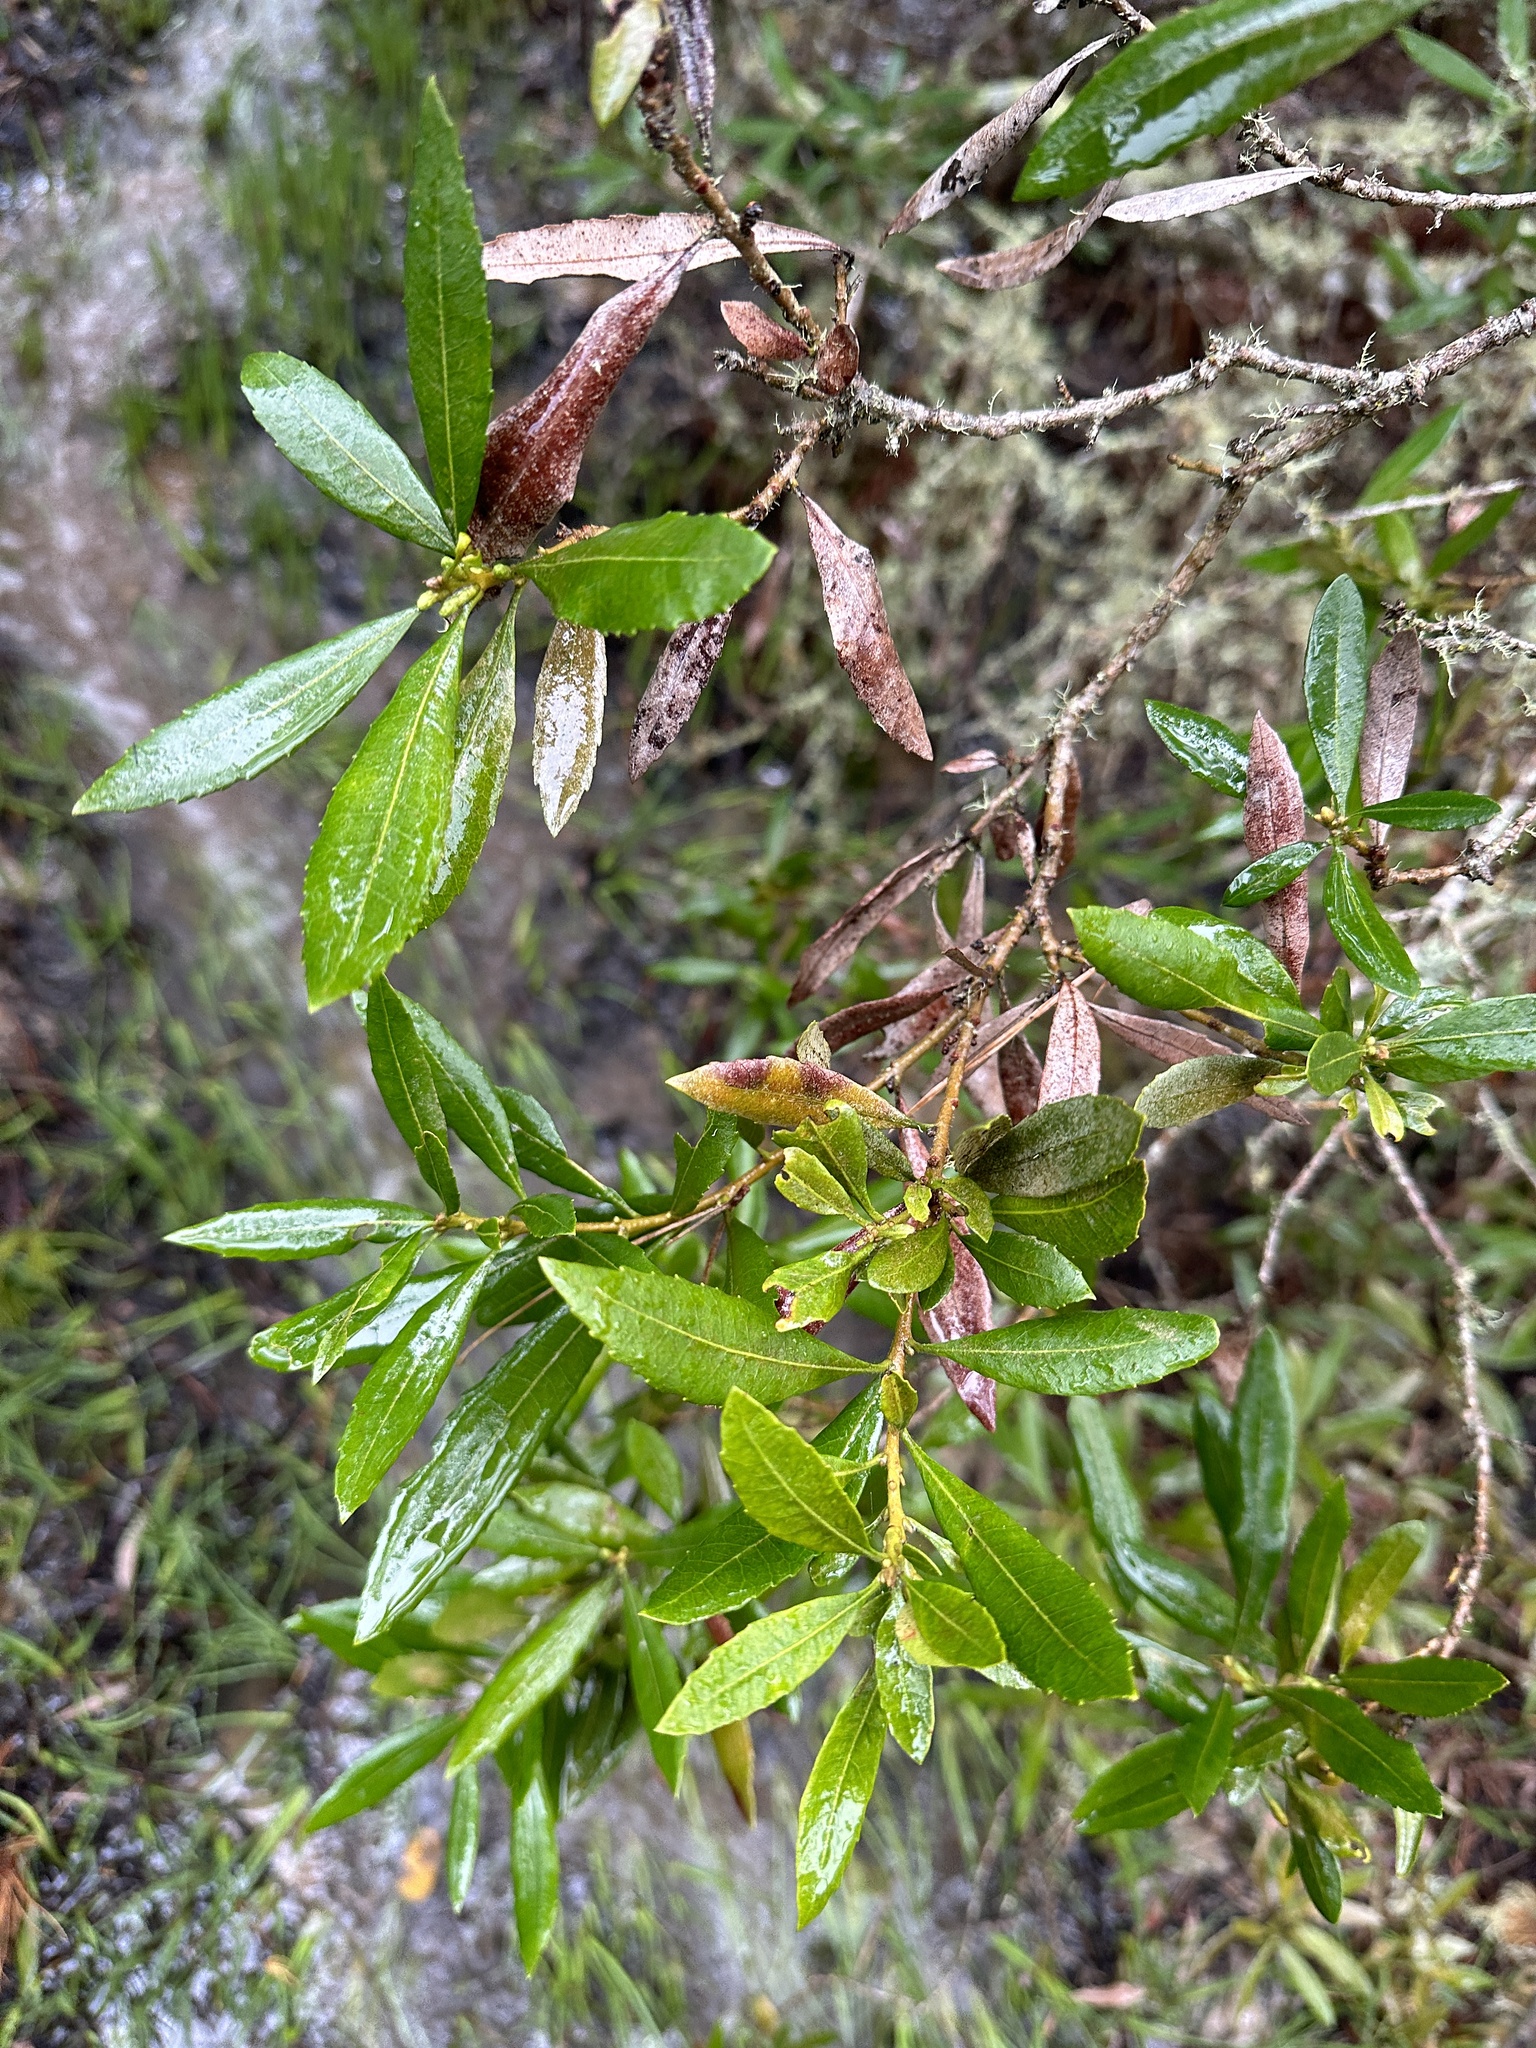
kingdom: Plantae
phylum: Tracheophyta
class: Magnoliopsida
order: Fagales
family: Myricaceae
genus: Morella
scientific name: Morella californica
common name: California wax-myrtle
